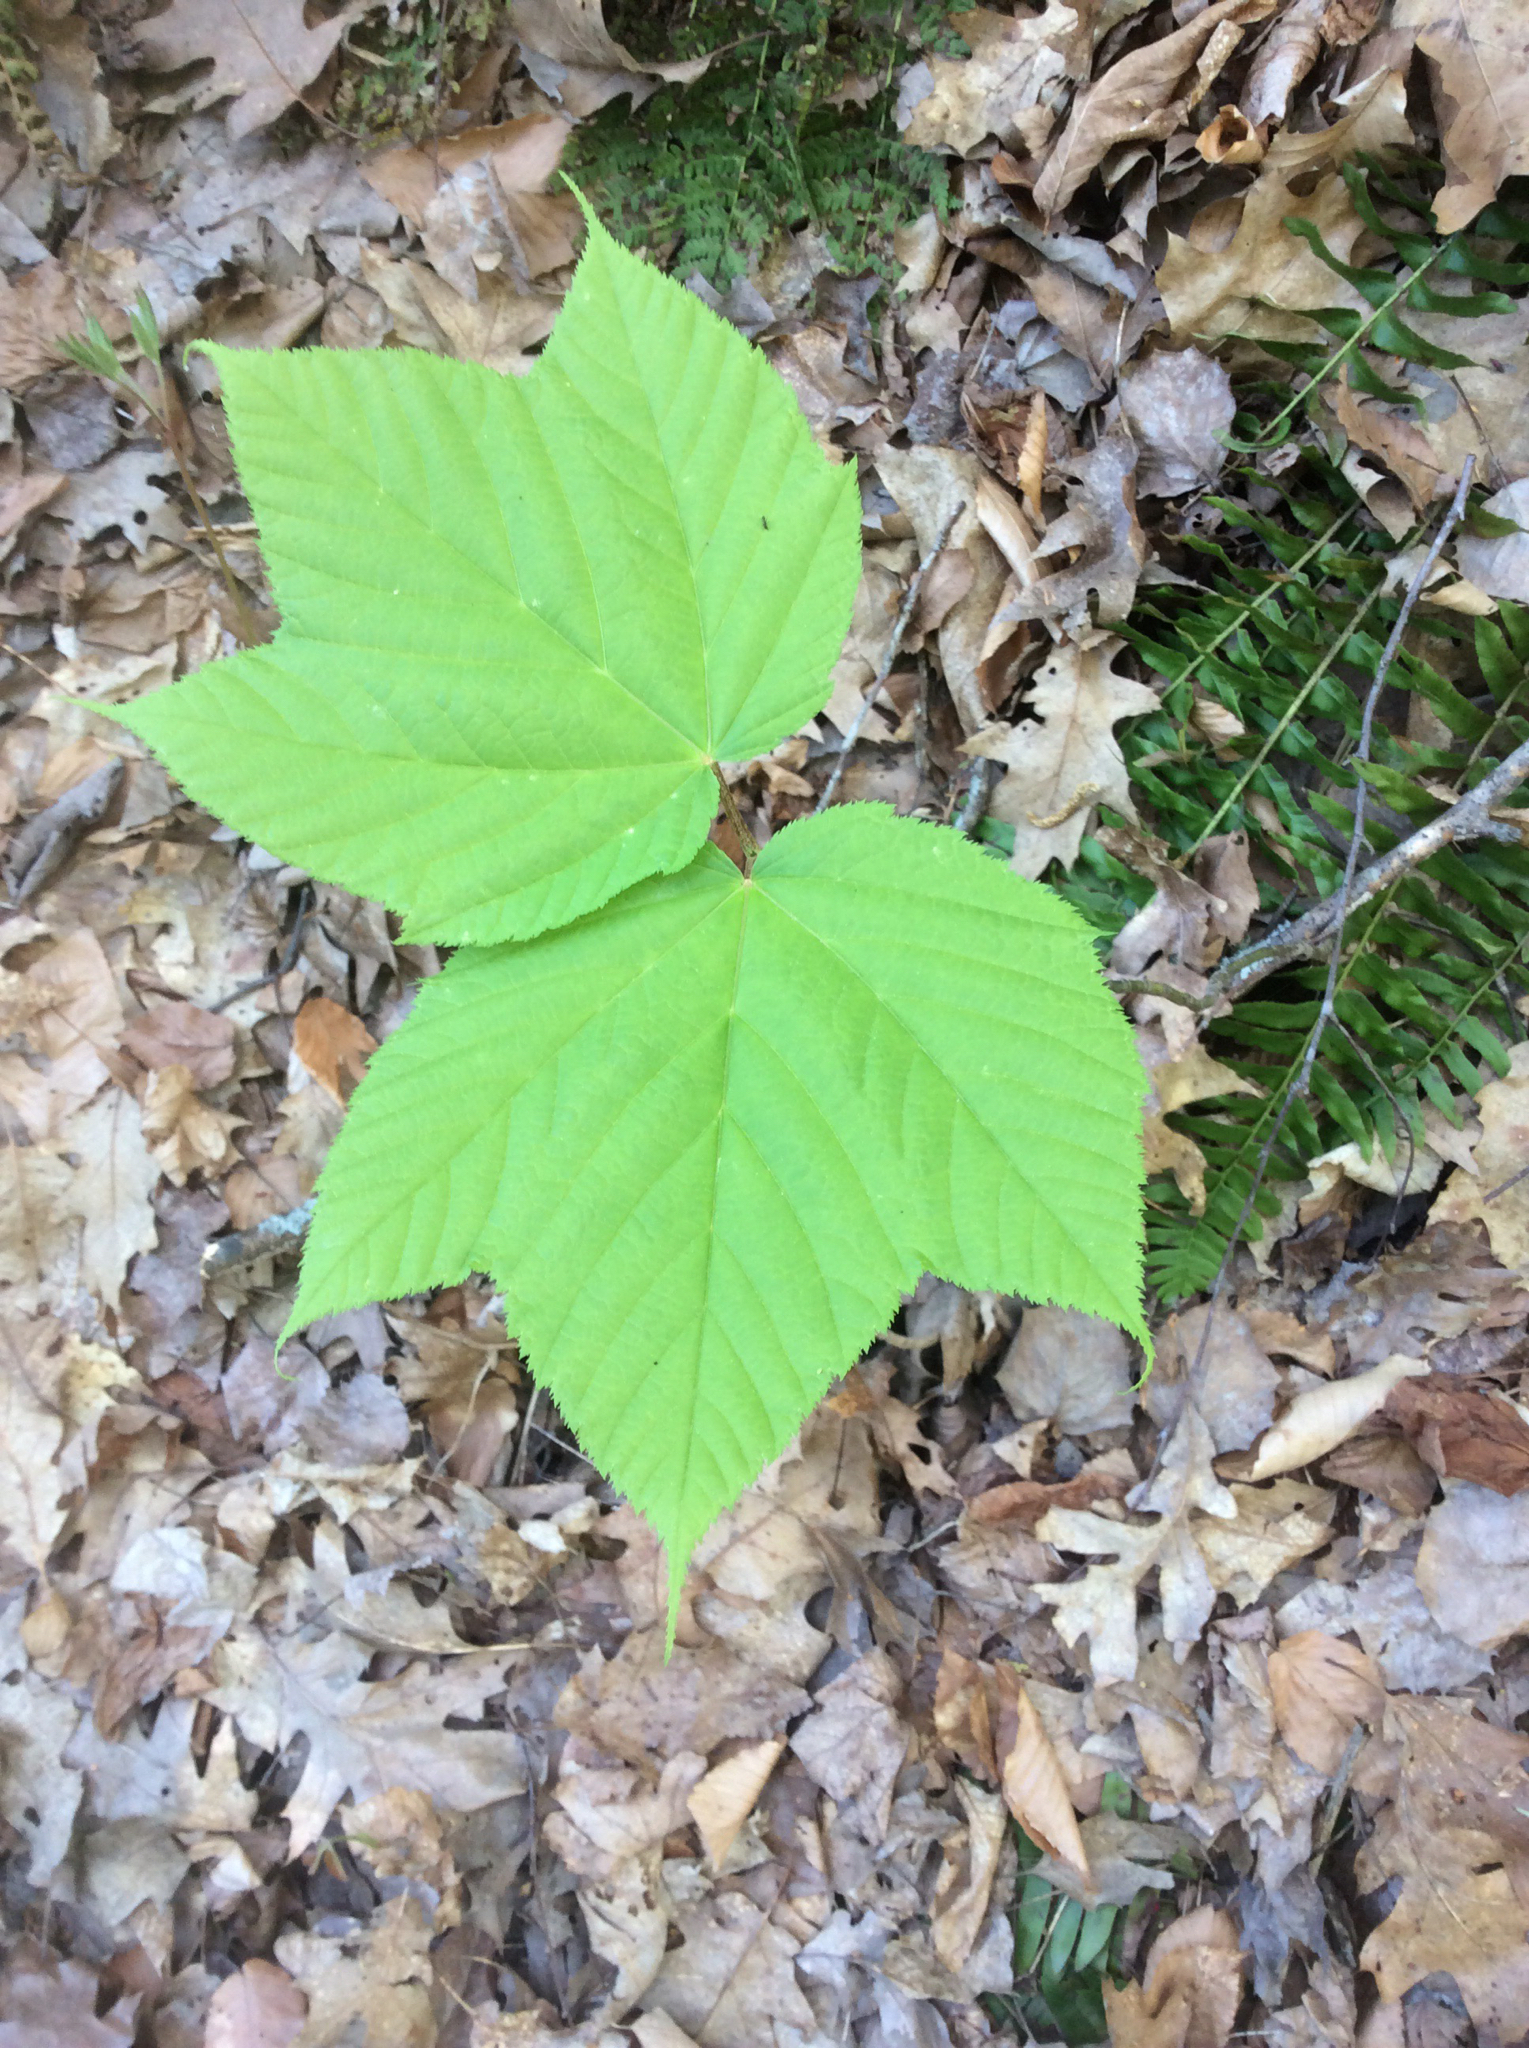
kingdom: Plantae
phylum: Tracheophyta
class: Magnoliopsida
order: Sapindales
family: Sapindaceae
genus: Acer
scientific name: Acer pensylvanicum
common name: Moosewood
